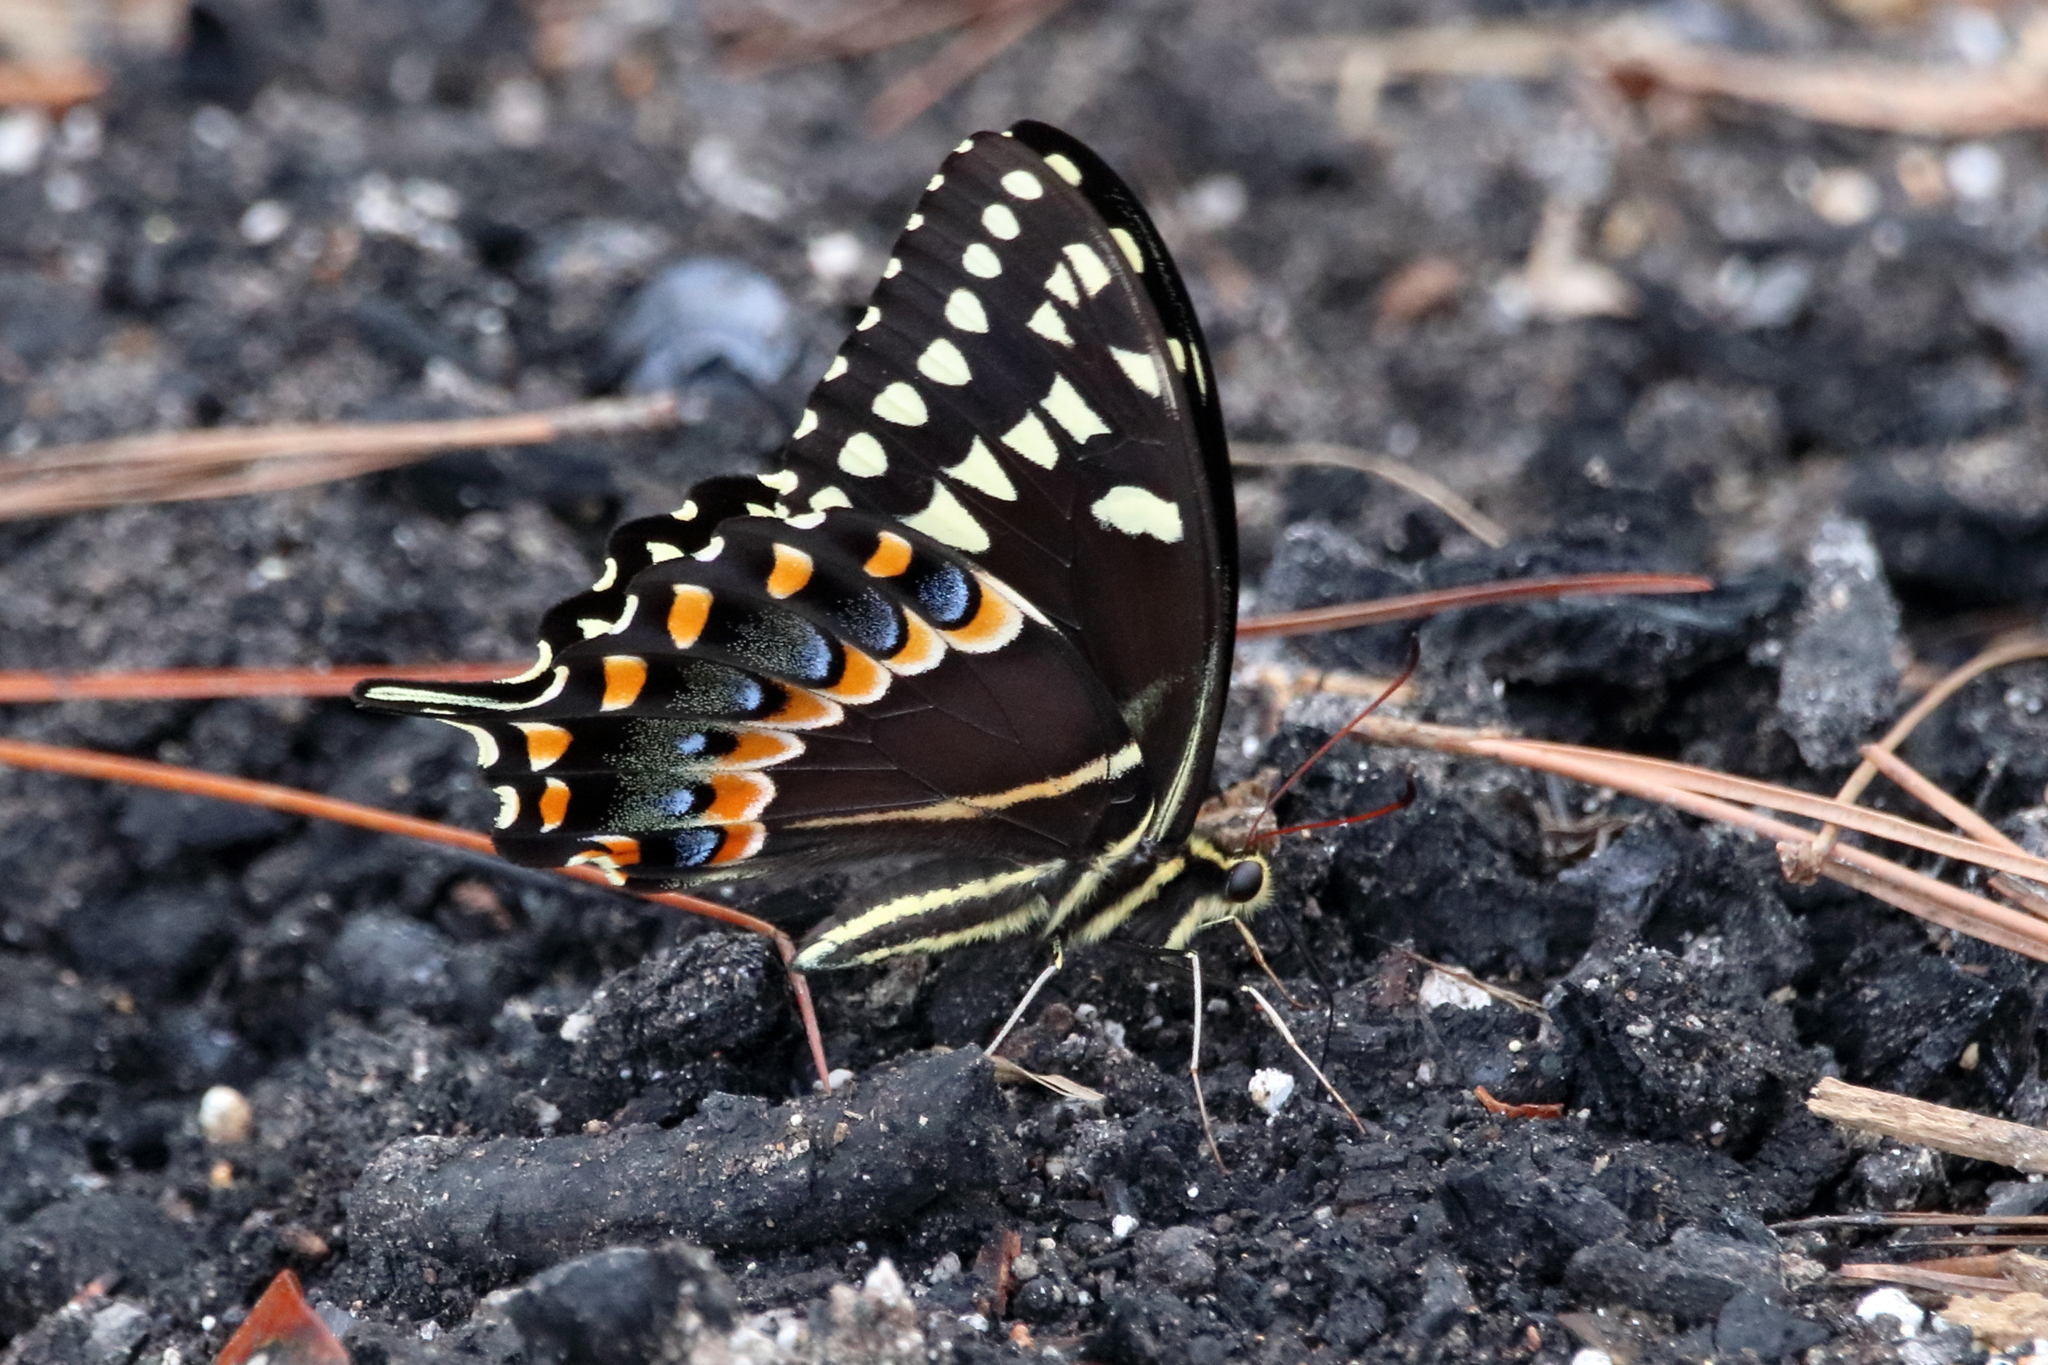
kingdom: Animalia
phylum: Arthropoda
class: Insecta
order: Lepidoptera
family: Papilionidae
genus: Papilio
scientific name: Papilio palamedes
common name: Palamedes swallowtail
